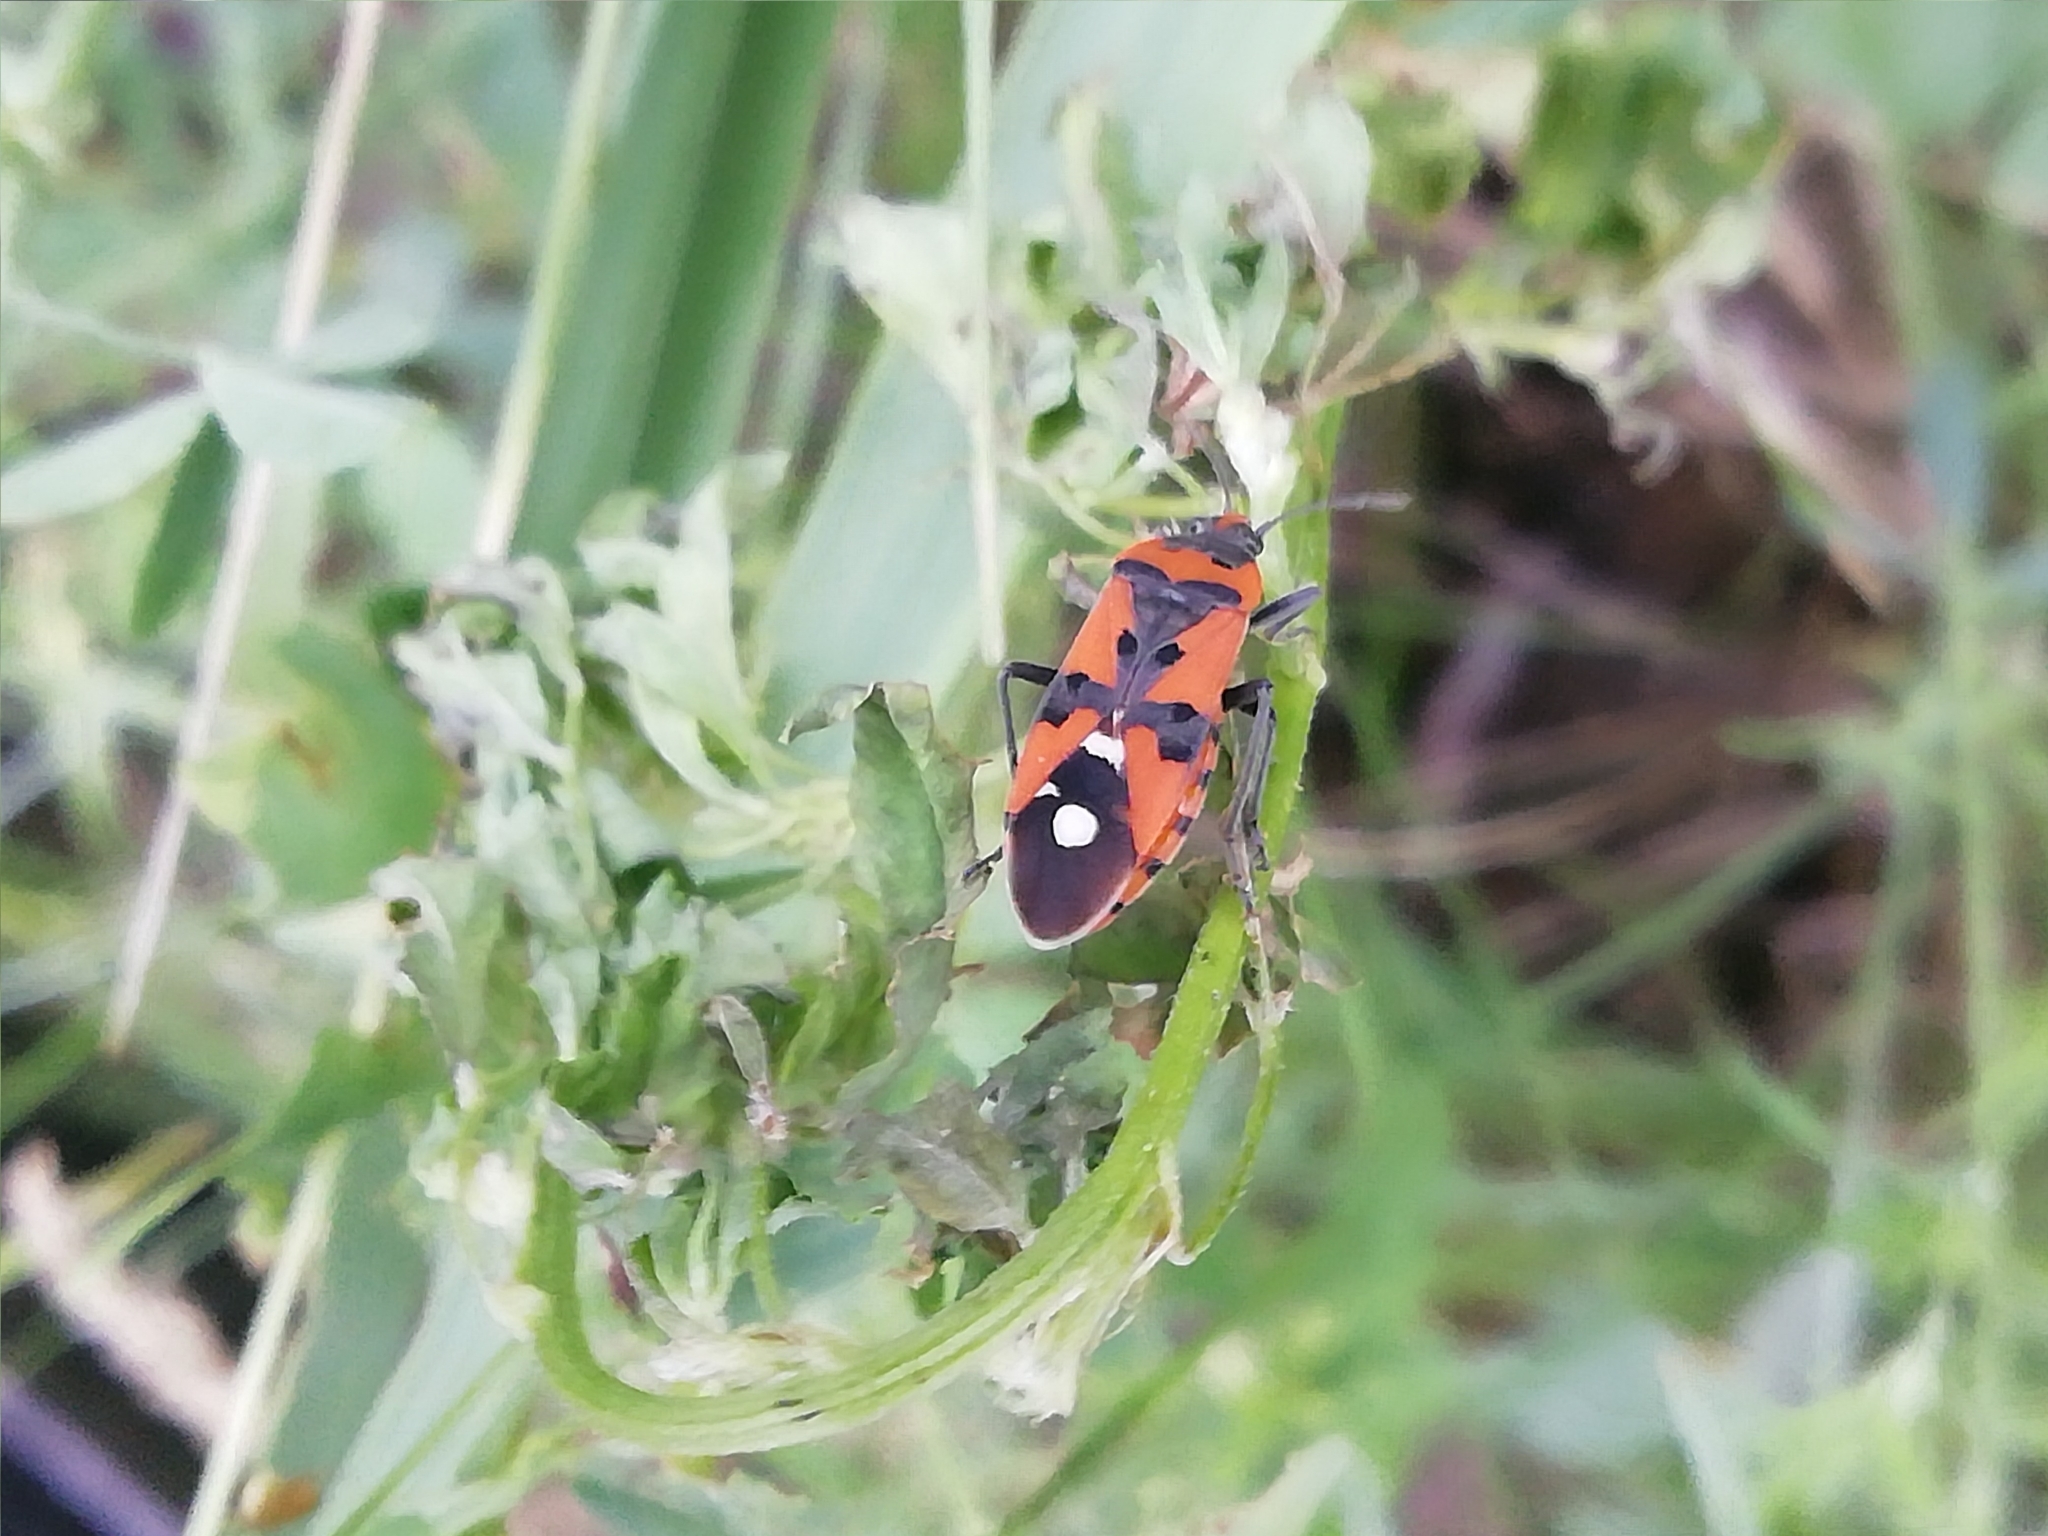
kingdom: Animalia
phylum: Arthropoda
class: Insecta
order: Hemiptera
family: Lygaeidae
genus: Lygaeus
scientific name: Lygaeus equestris
